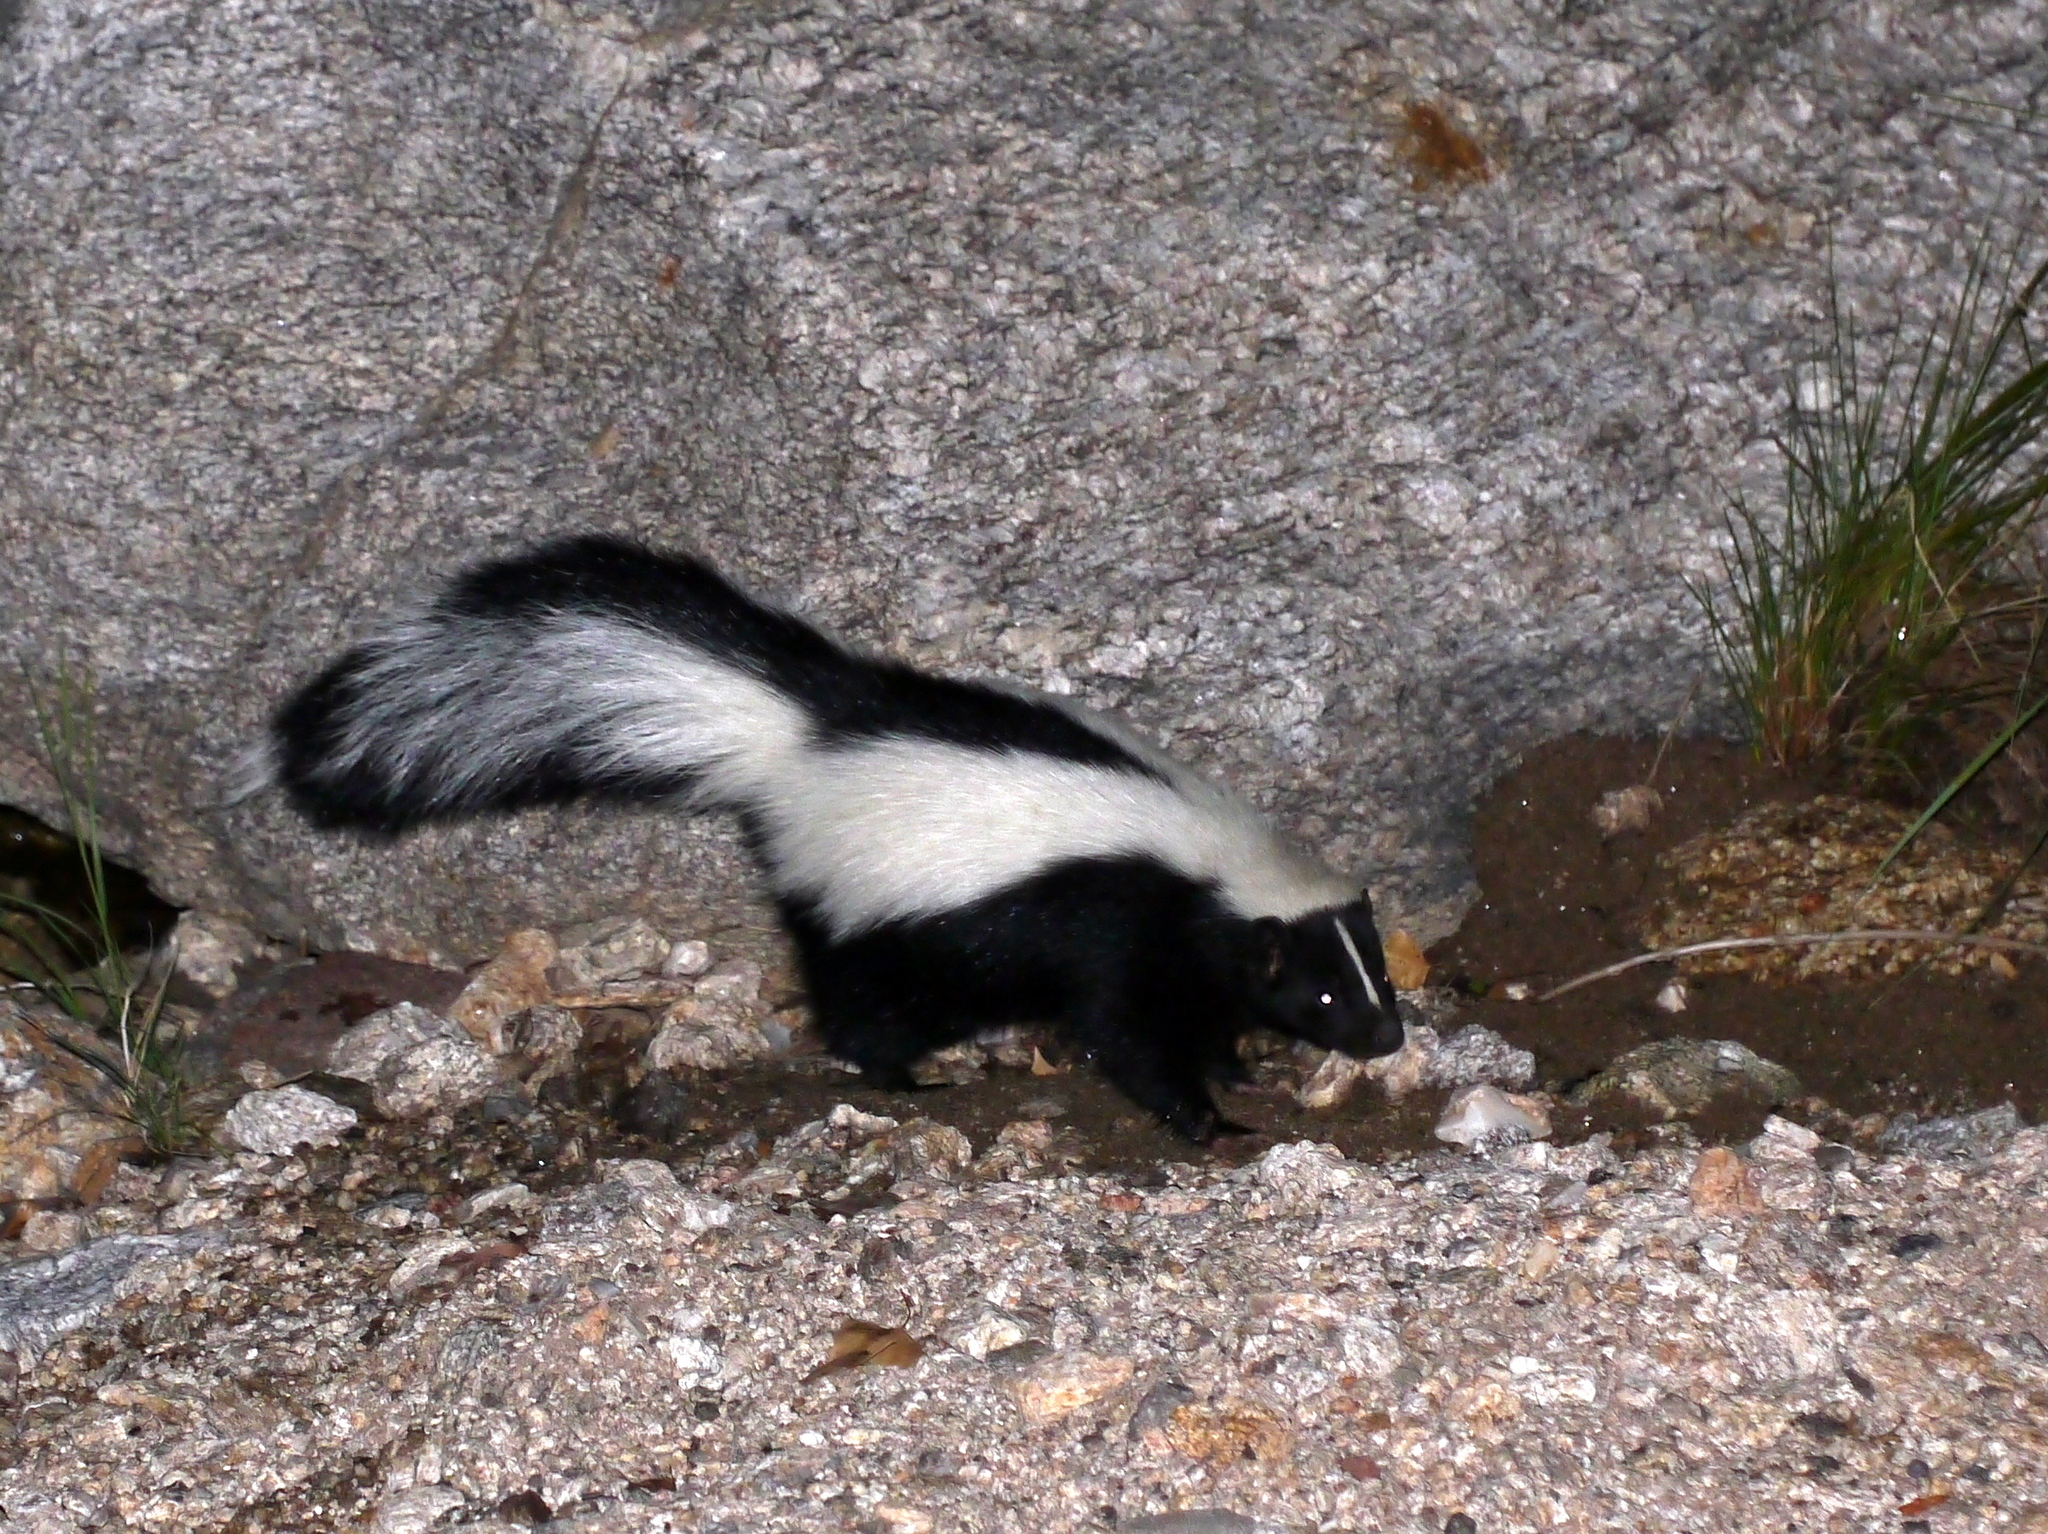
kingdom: Animalia
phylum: Chordata
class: Mammalia
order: Carnivora
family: Mephitidae
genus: Mephitis
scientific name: Mephitis mephitis
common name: Striped skunk
